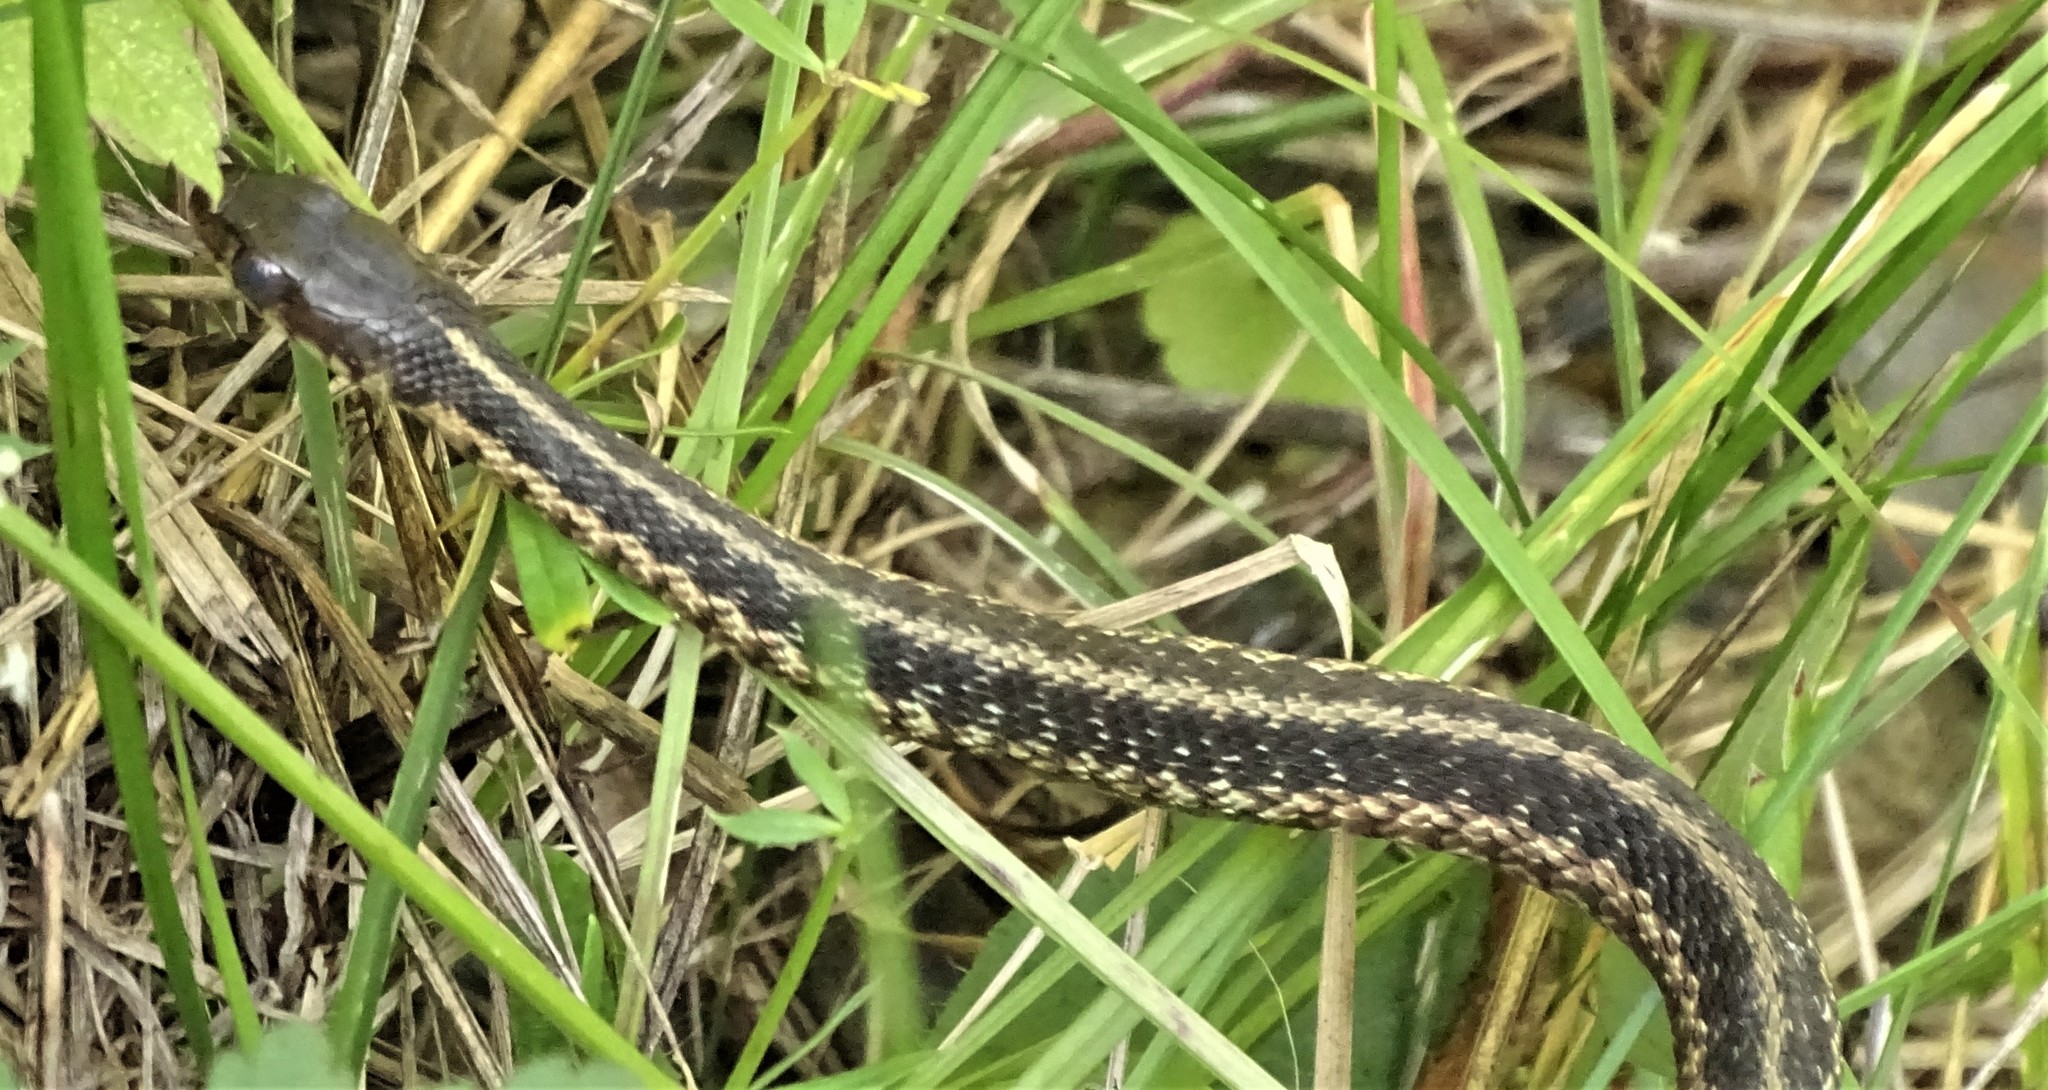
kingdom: Animalia
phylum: Chordata
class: Squamata
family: Colubridae
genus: Thamnophis
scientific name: Thamnophis sirtalis
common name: Common garter snake
